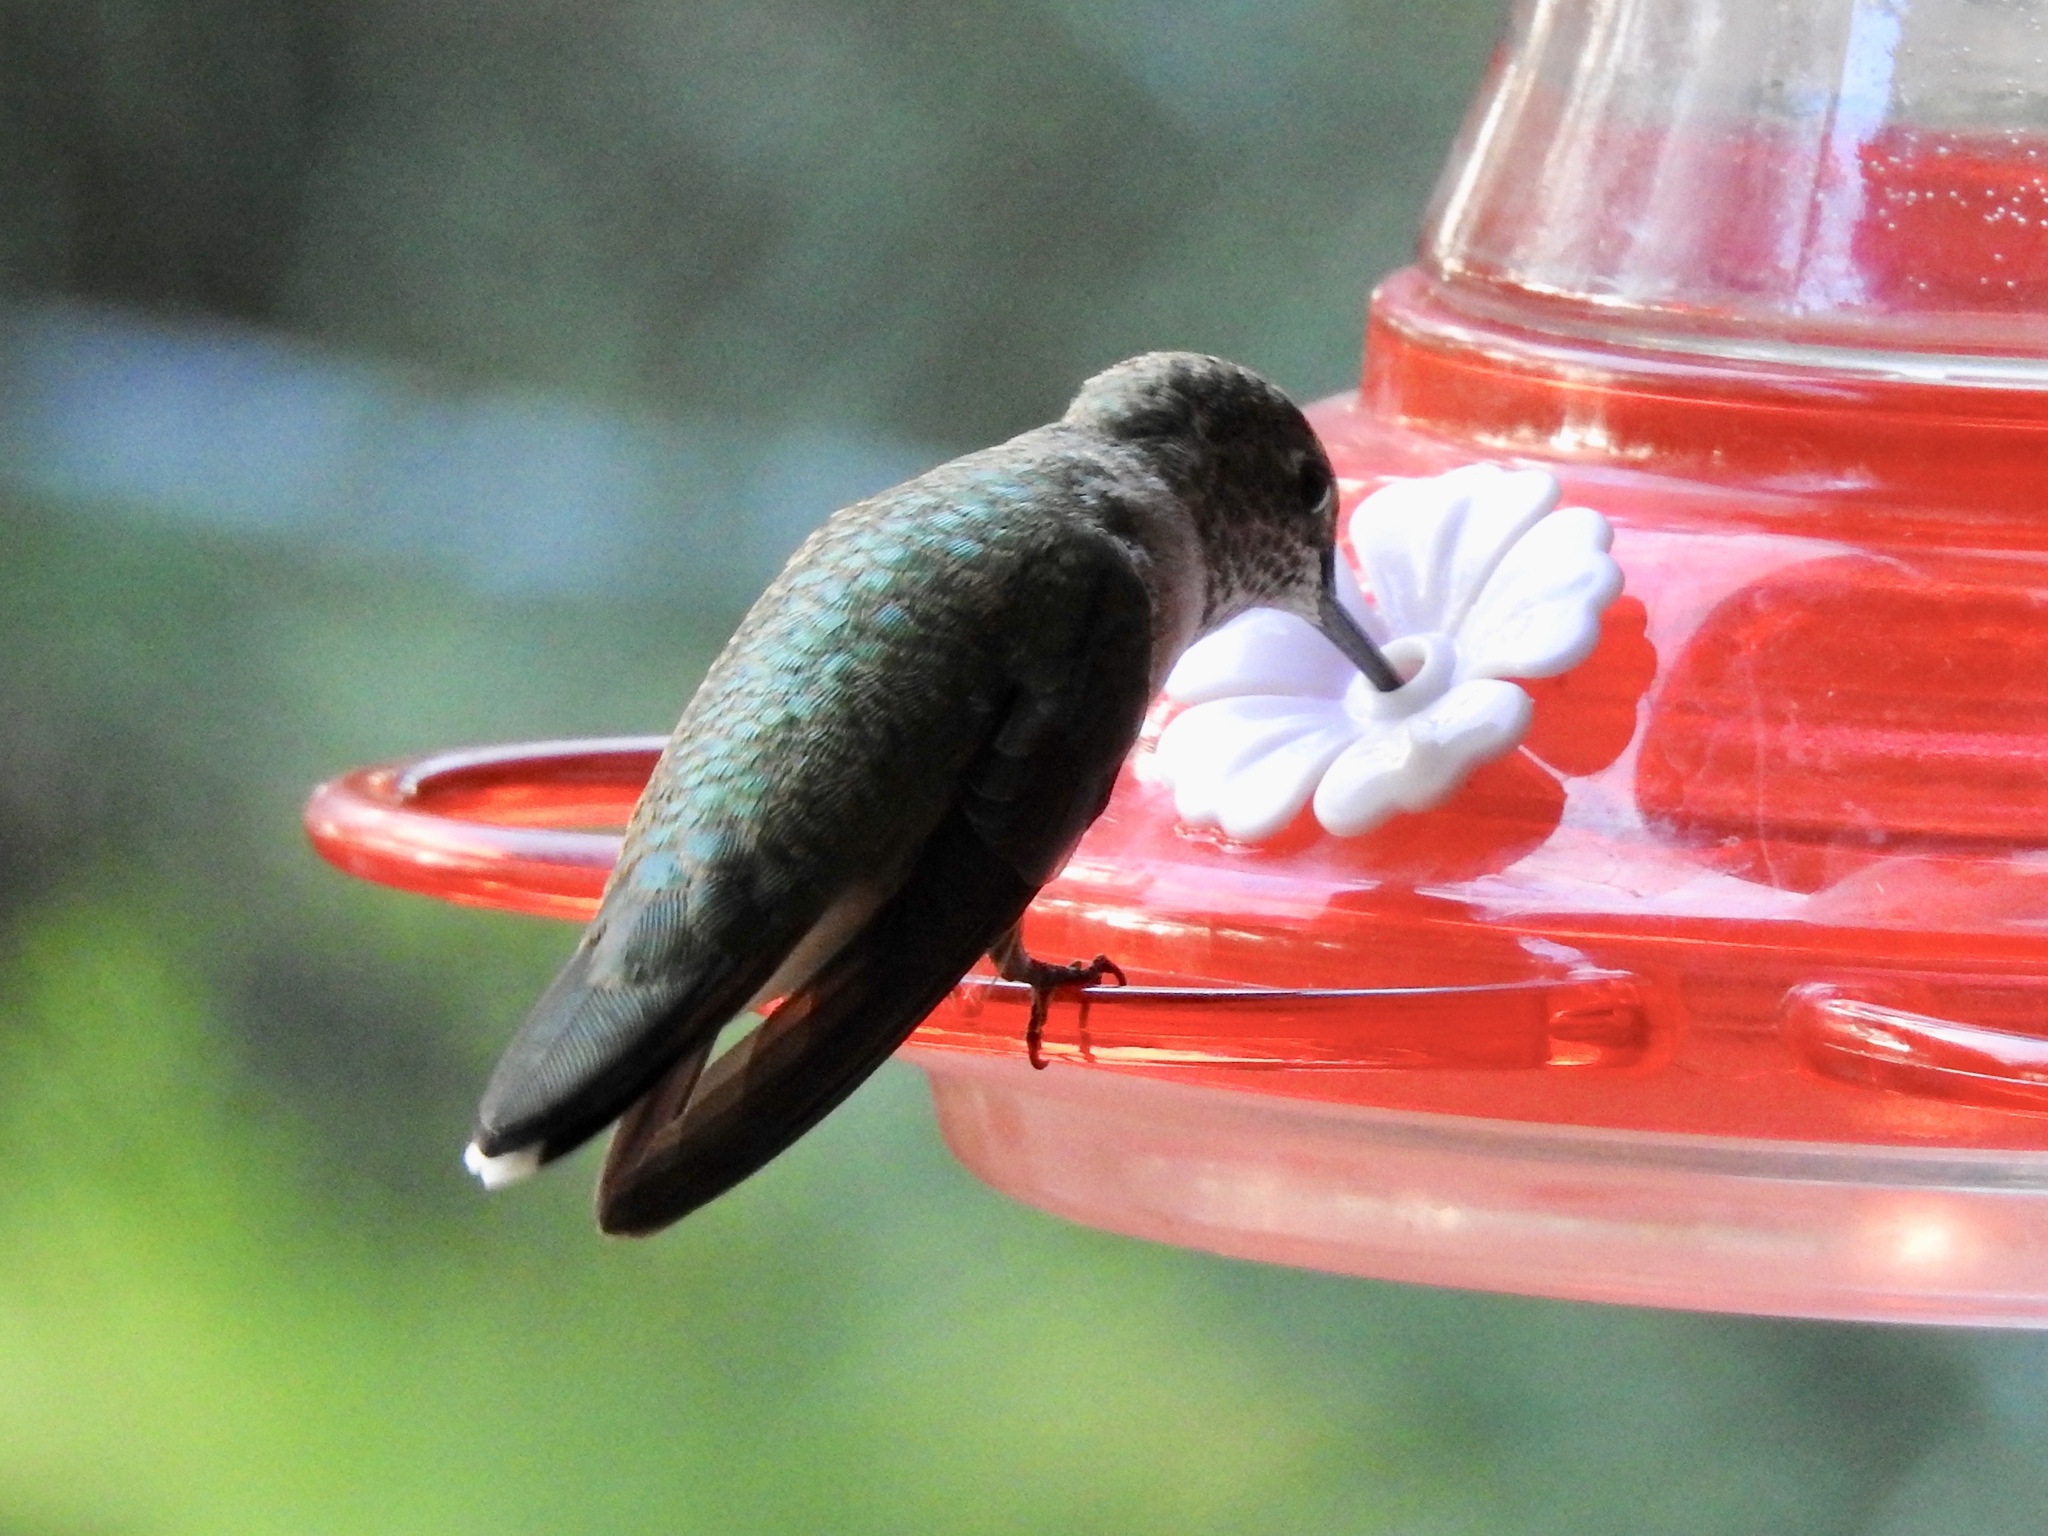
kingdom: Animalia
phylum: Chordata
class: Aves
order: Apodiformes
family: Trochilidae
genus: Selasphorus
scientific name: Selasphorus platycercus
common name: Broad-tailed hummingbird
